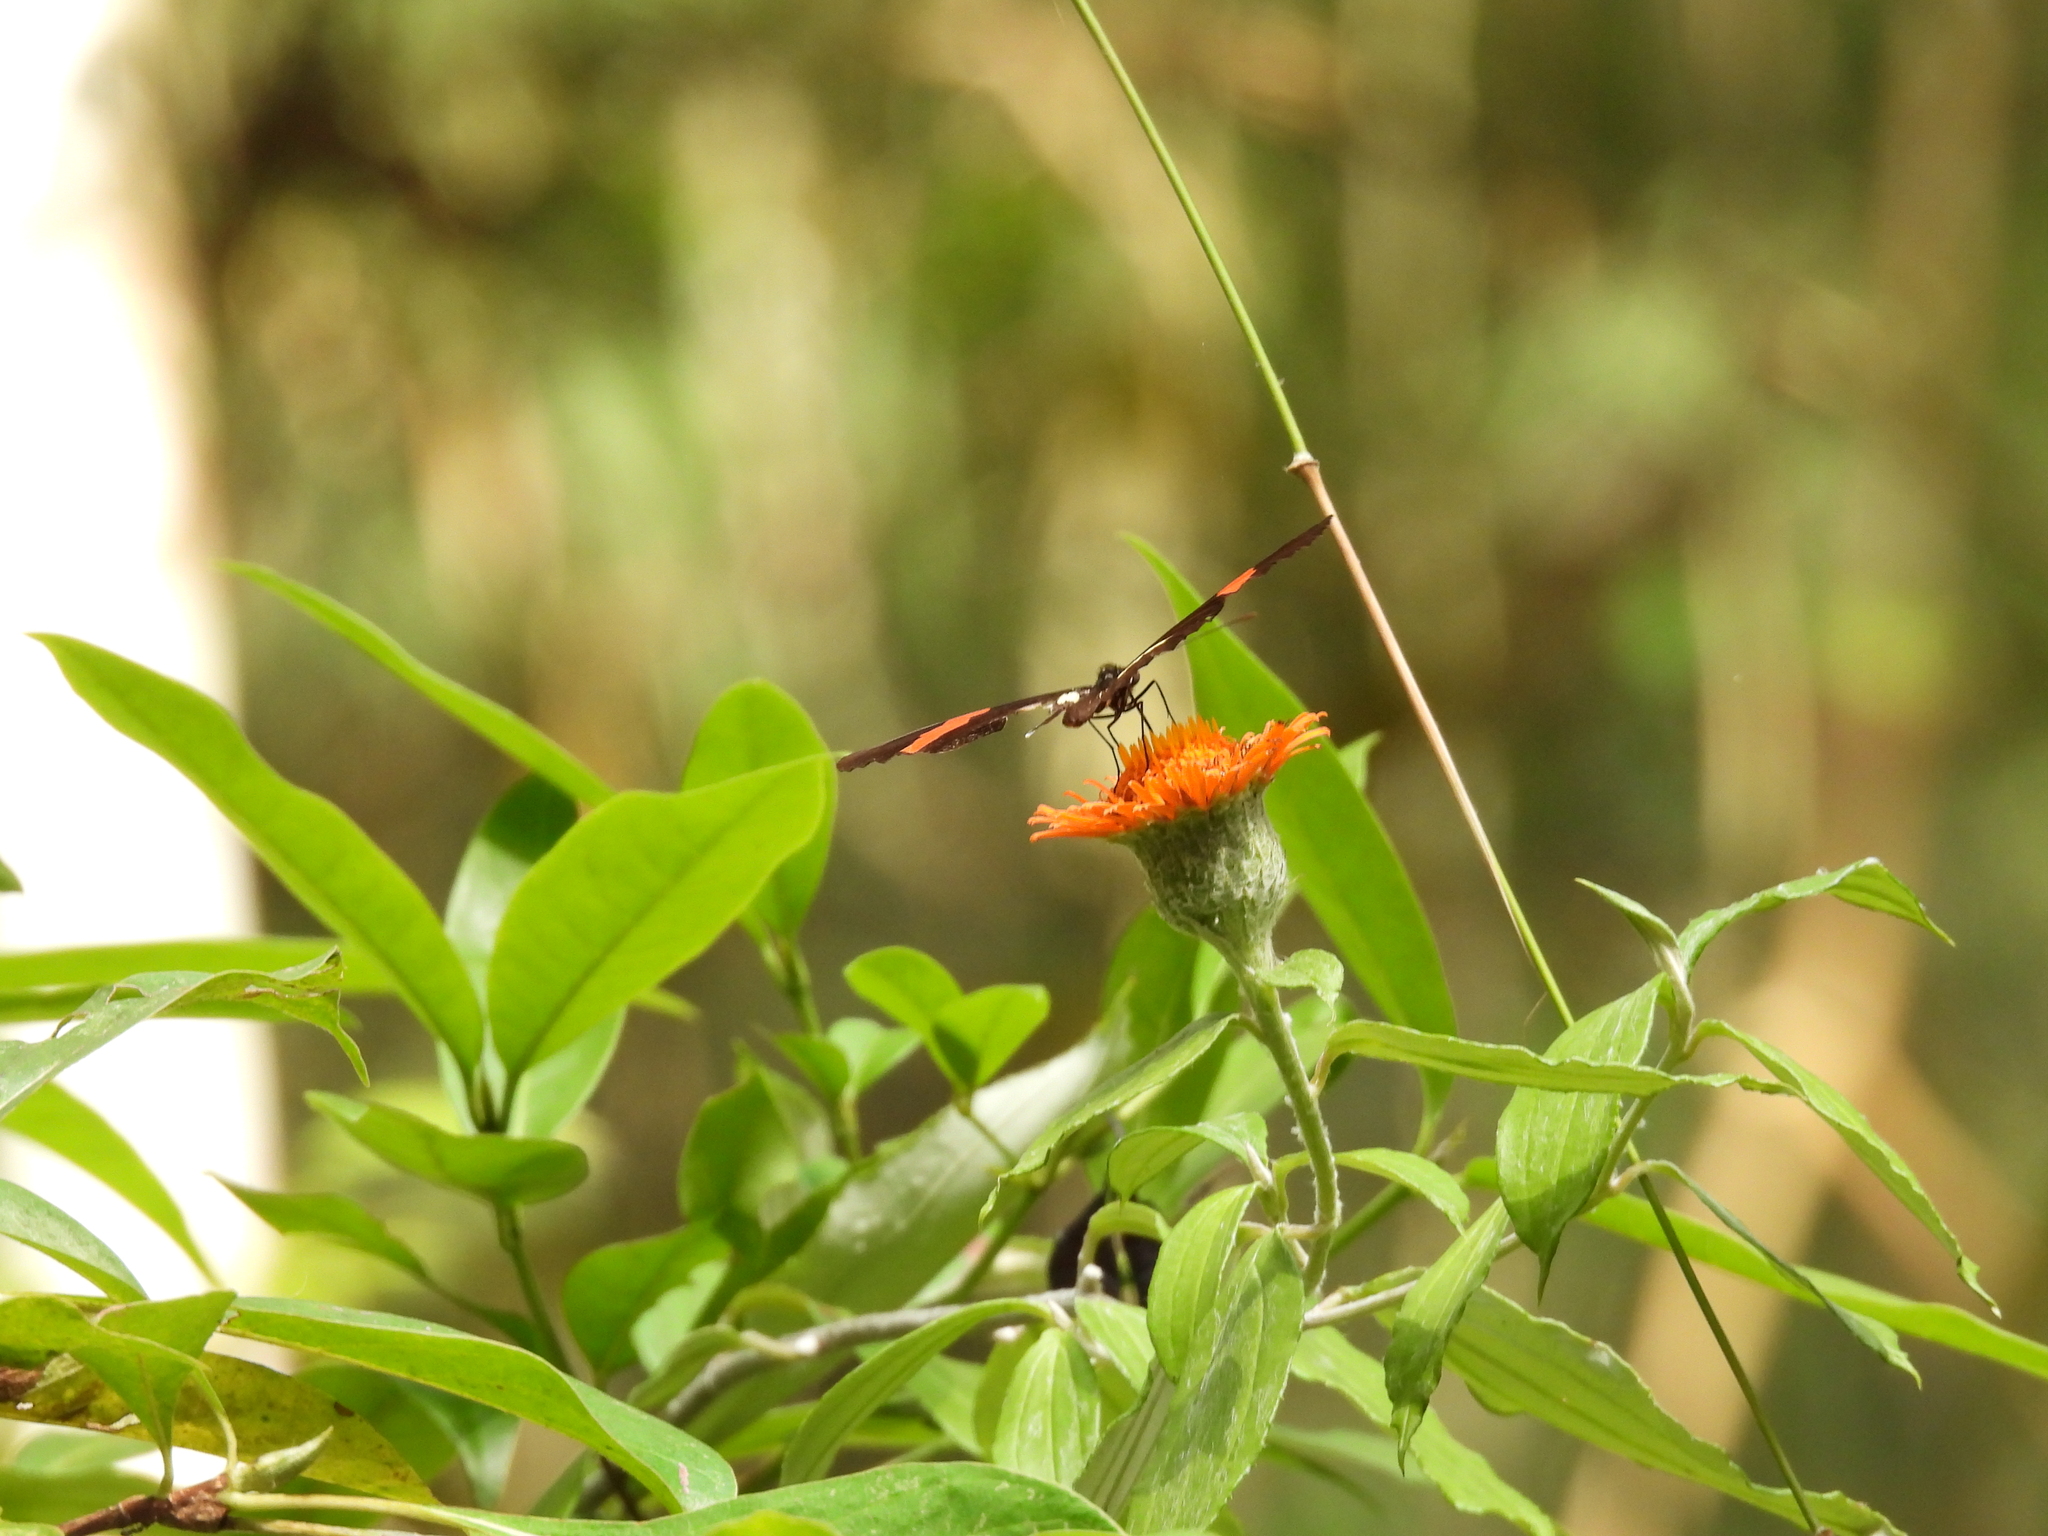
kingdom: Animalia
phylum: Arthropoda
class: Insecta
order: Lepidoptera
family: Nymphalidae
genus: Heliconius
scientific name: Heliconius erato
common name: Common patch longwing
